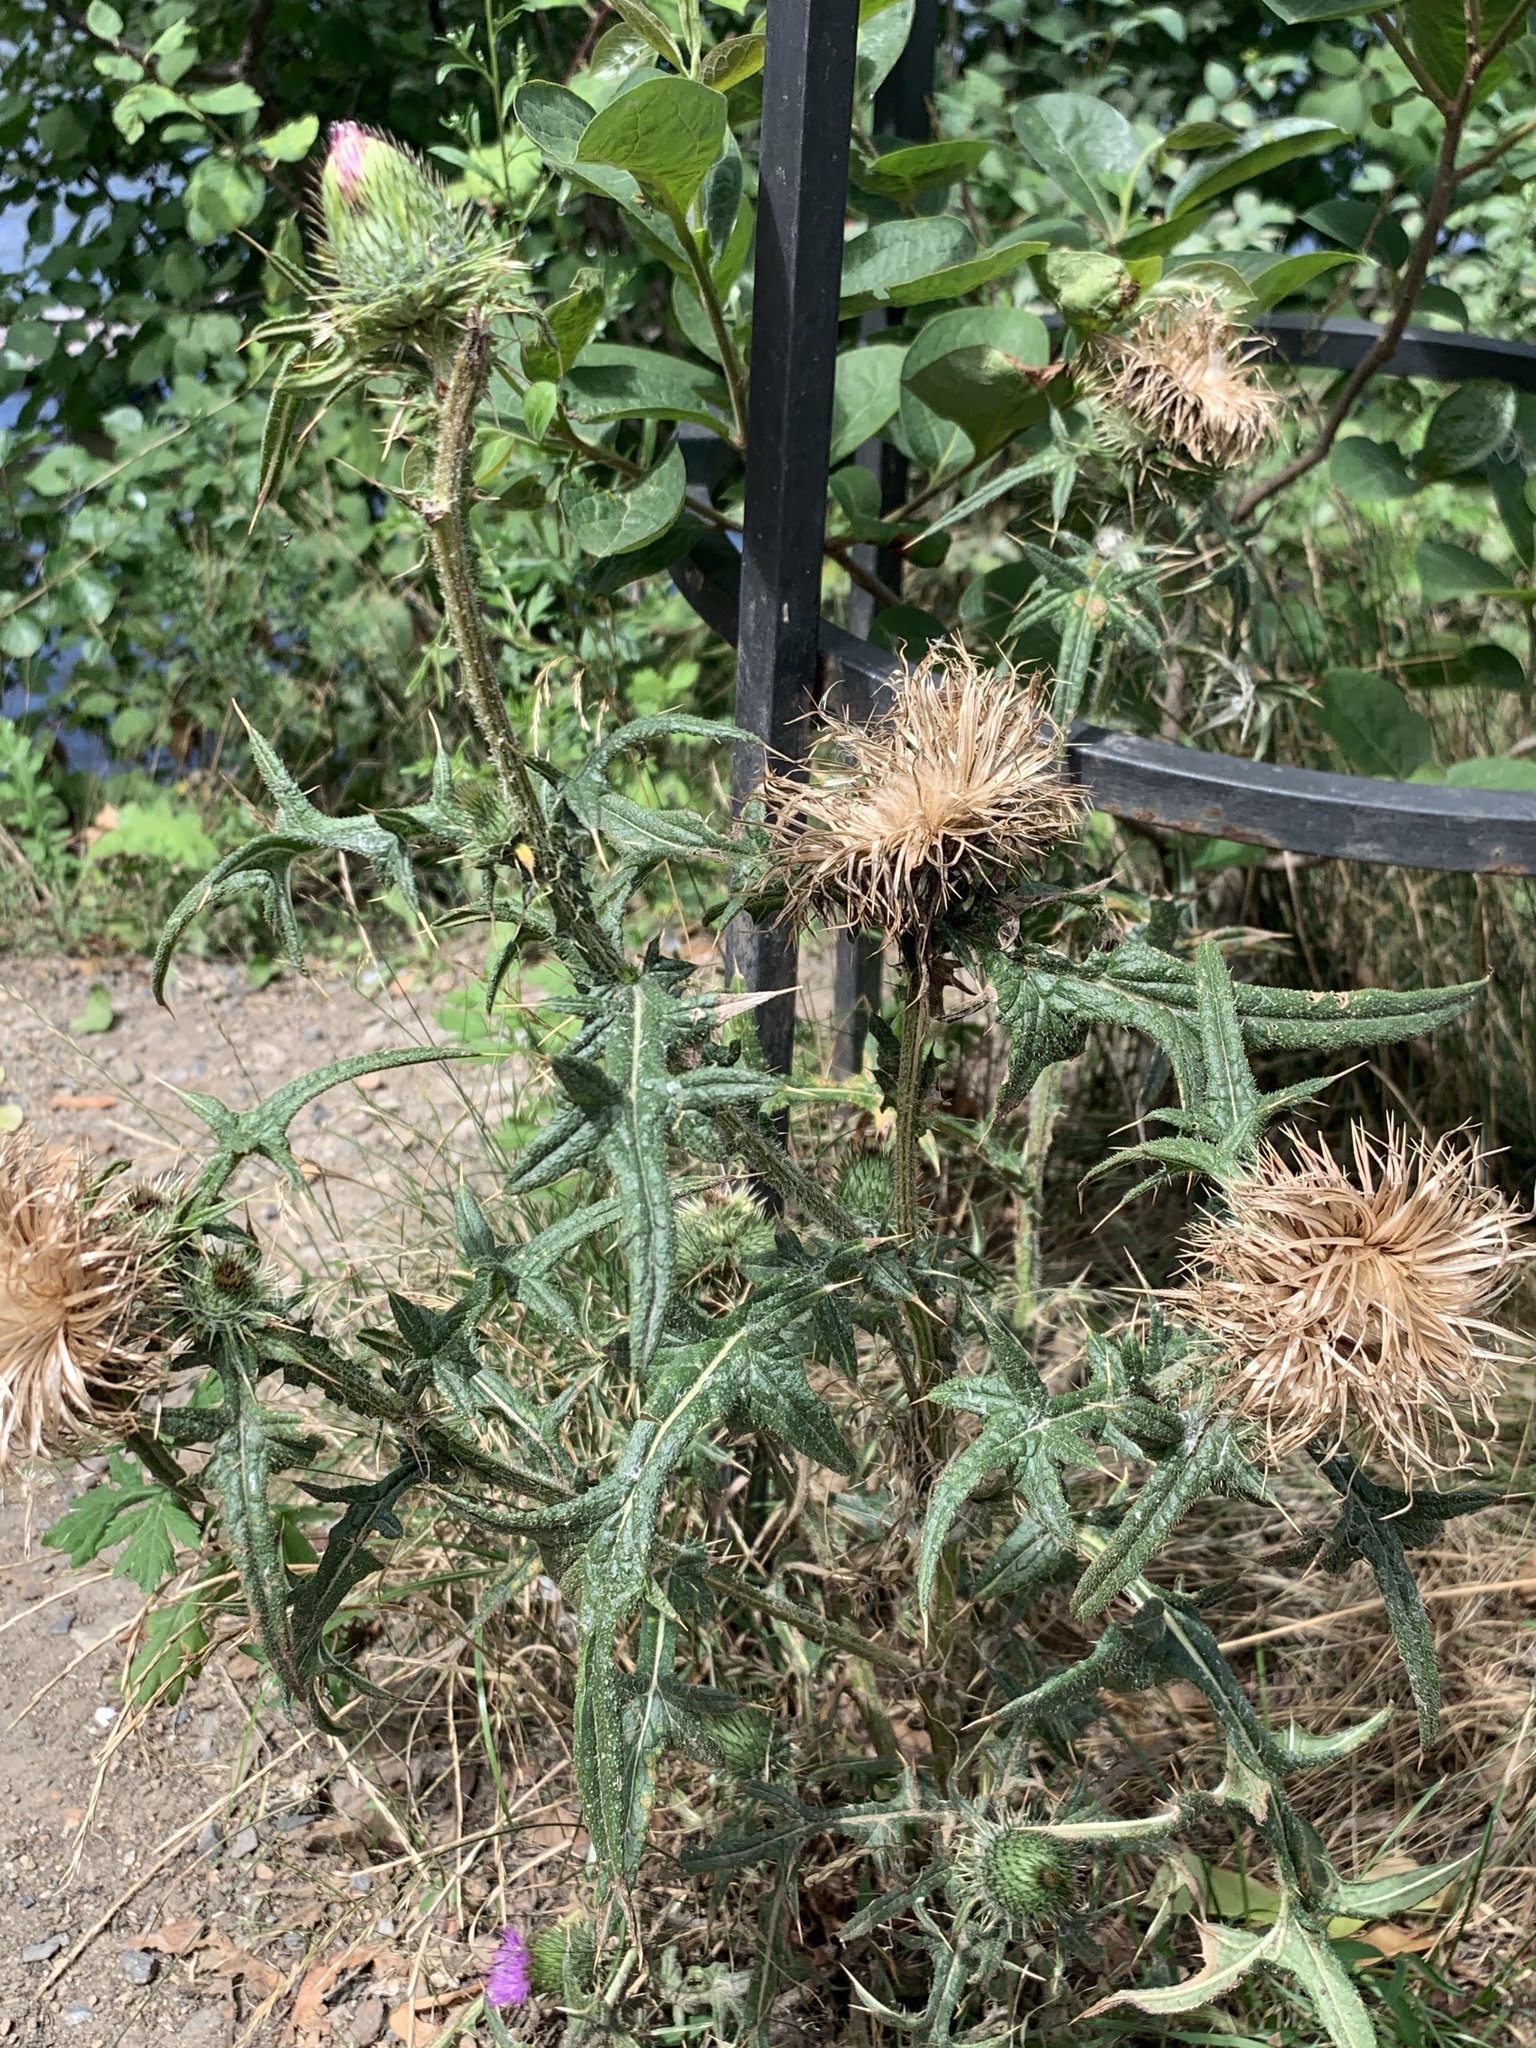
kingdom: Plantae
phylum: Tracheophyta
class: Magnoliopsida
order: Asterales
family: Asteraceae
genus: Cirsium
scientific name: Cirsium vulgare
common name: Bull thistle
